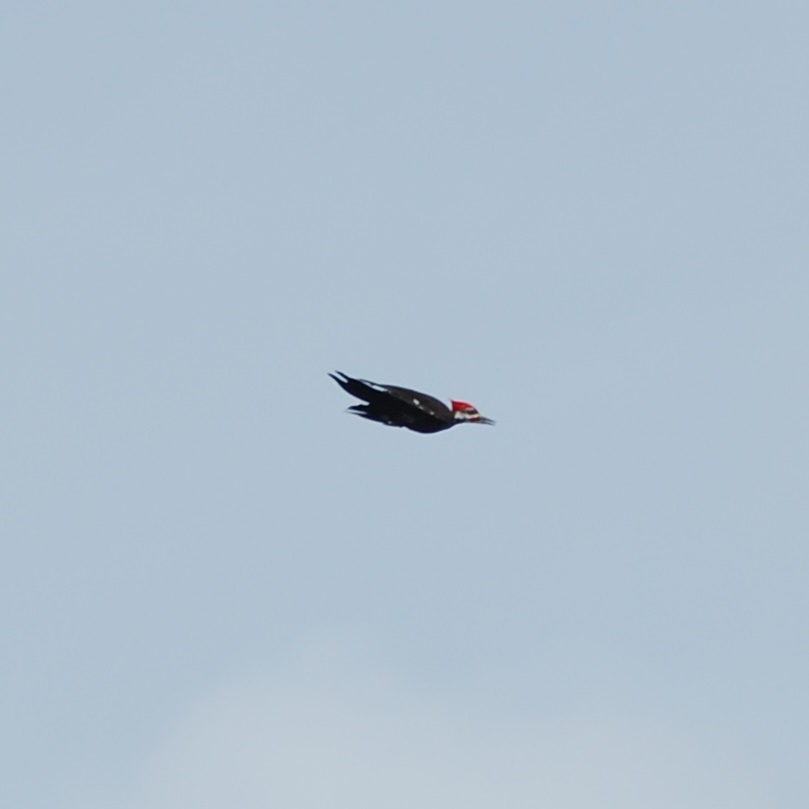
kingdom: Animalia
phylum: Chordata
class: Aves
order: Piciformes
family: Picidae
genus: Dryocopus
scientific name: Dryocopus pileatus
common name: Pileated woodpecker
